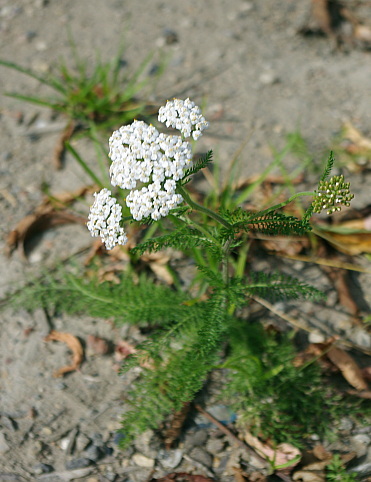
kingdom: Plantae
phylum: Tracheophyta
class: Magnoliopsida
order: Asterales
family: Asteraceae
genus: Achillea
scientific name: Achillea millefolium
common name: Yarrow
